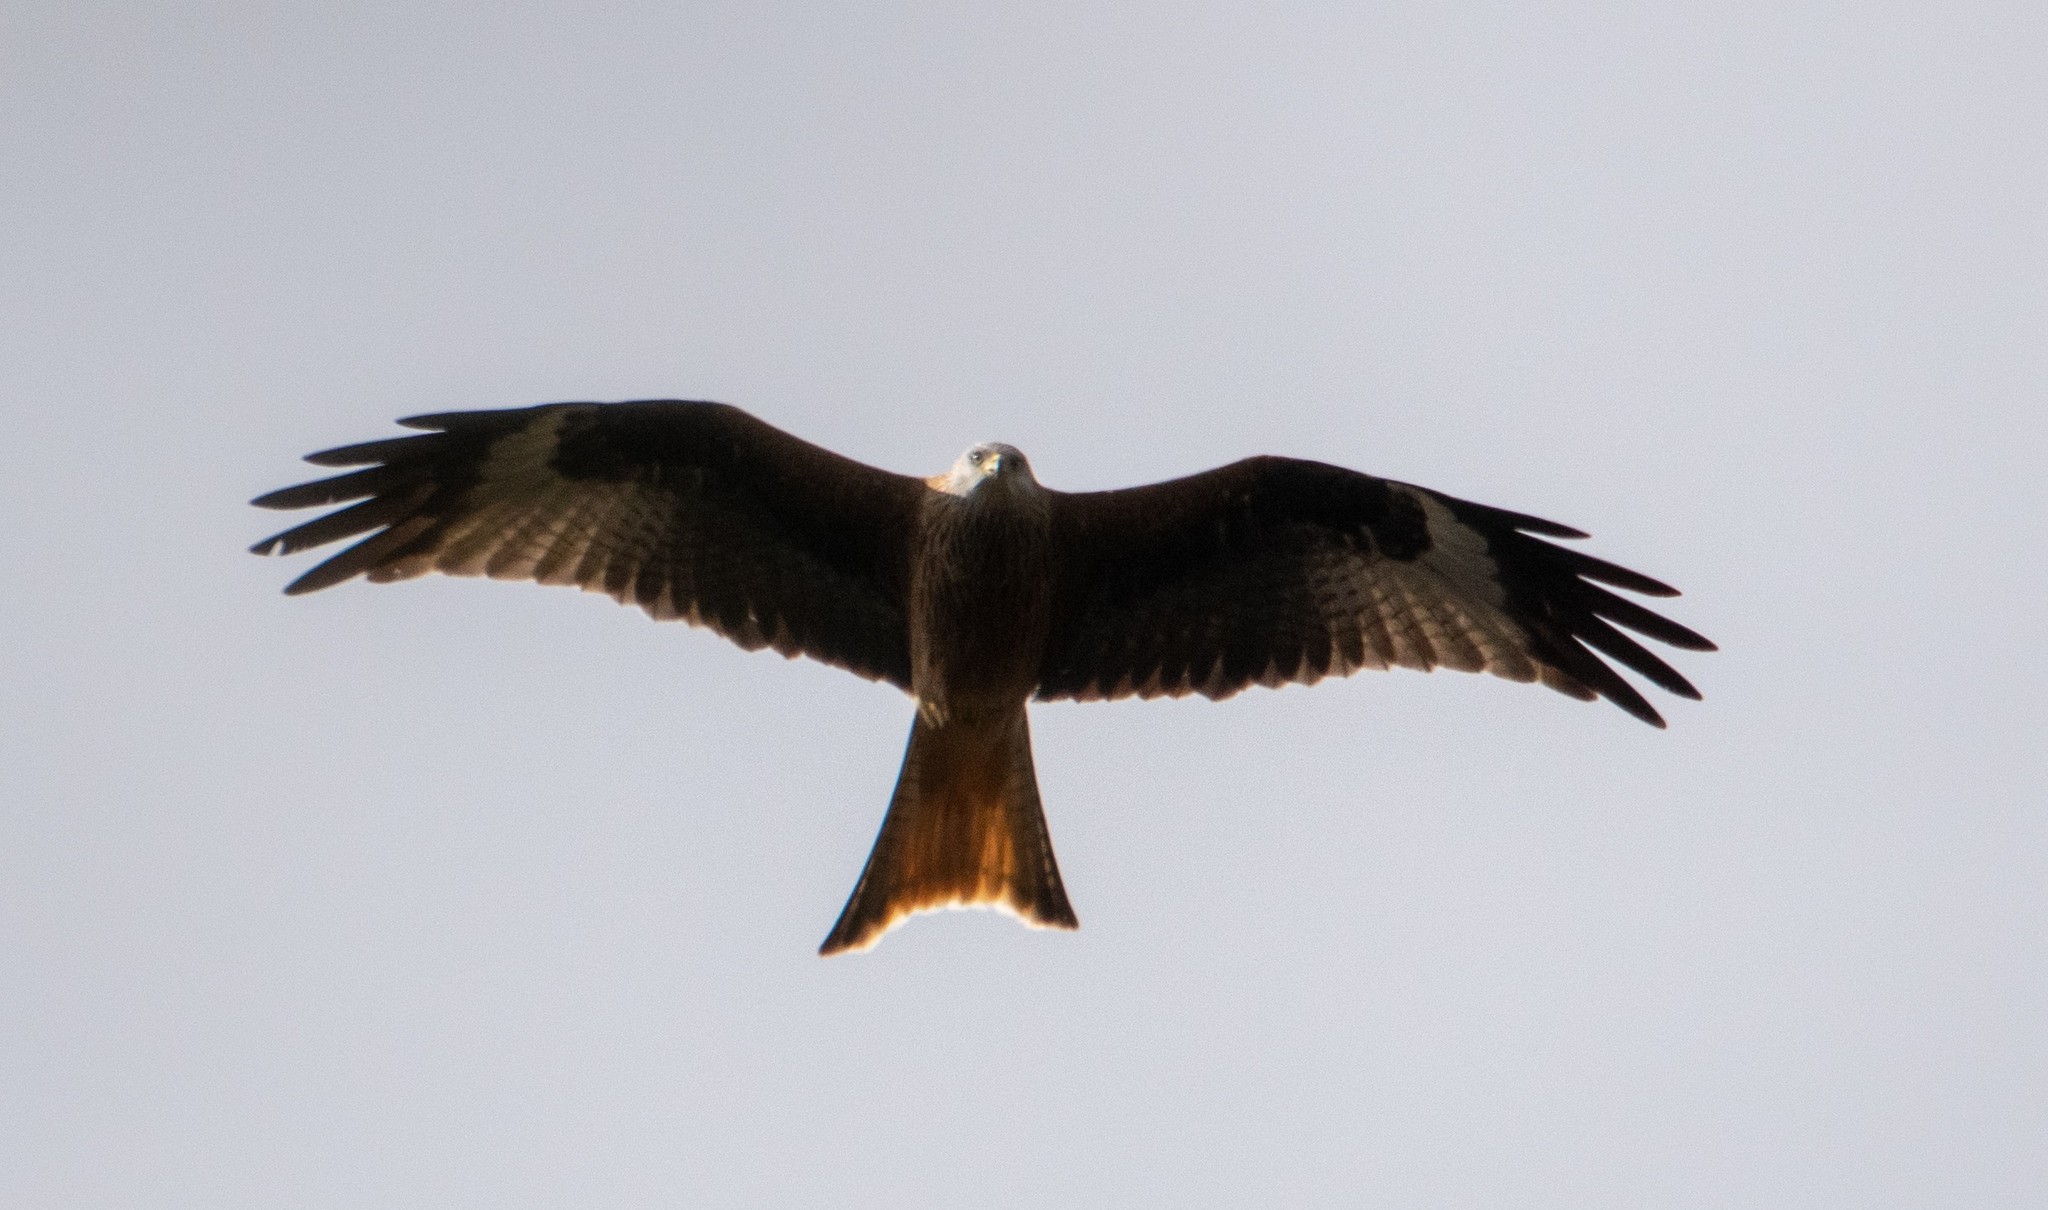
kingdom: Animalia
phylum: Chordata
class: Aves
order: Accipitriformes
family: Accipitridae
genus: Milvus
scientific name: Milvus milvus
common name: Red kite
